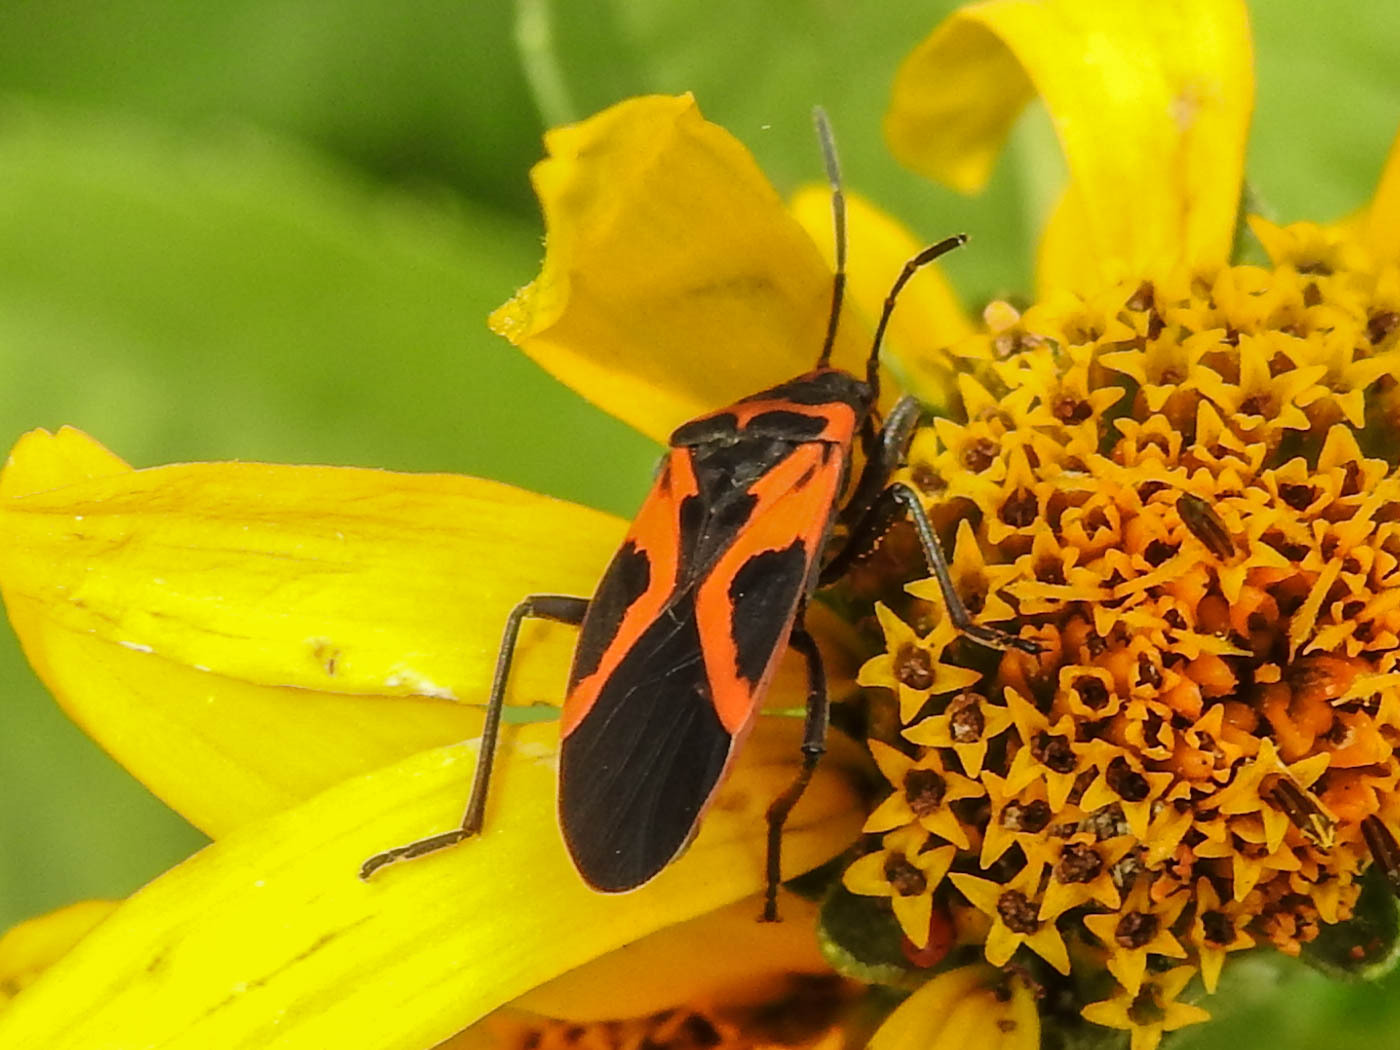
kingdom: Animalia
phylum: Arthropoda
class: Insecta
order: Hemiptera
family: Lygaeidae
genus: Lygaeus
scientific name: Lygaeus turcicus
